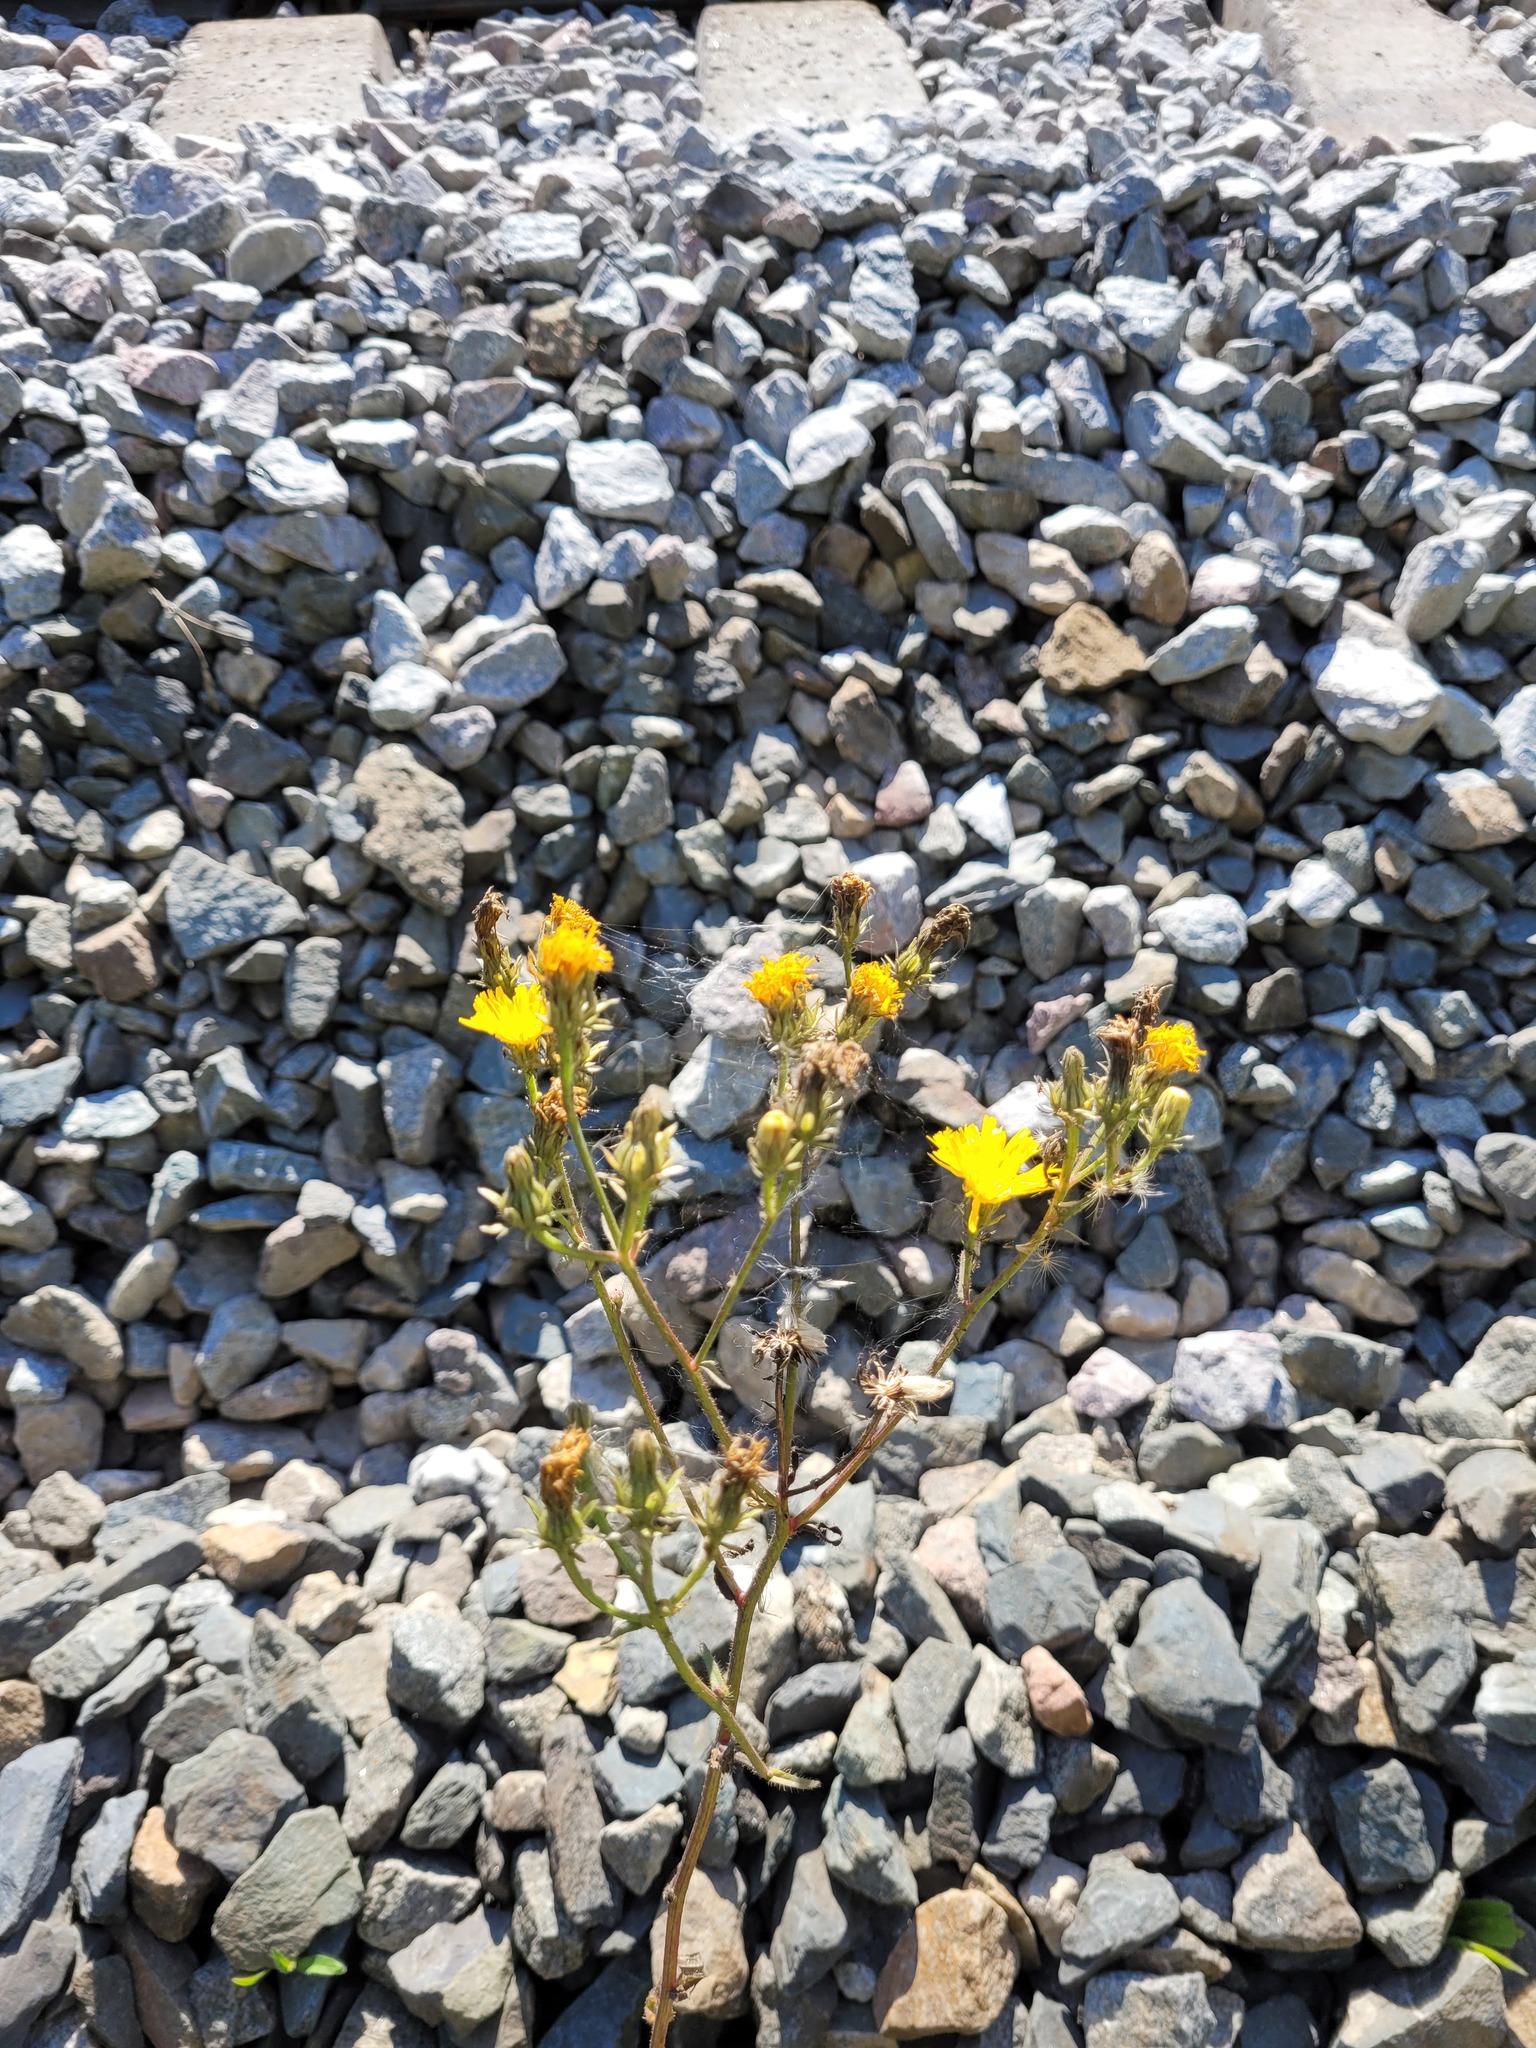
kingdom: Plantae
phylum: Tracheophyta
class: Magnoliopsida
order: Asterales
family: Asteraceae
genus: Picris
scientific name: Picris hieracioides
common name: Hawkweed oxtongue
